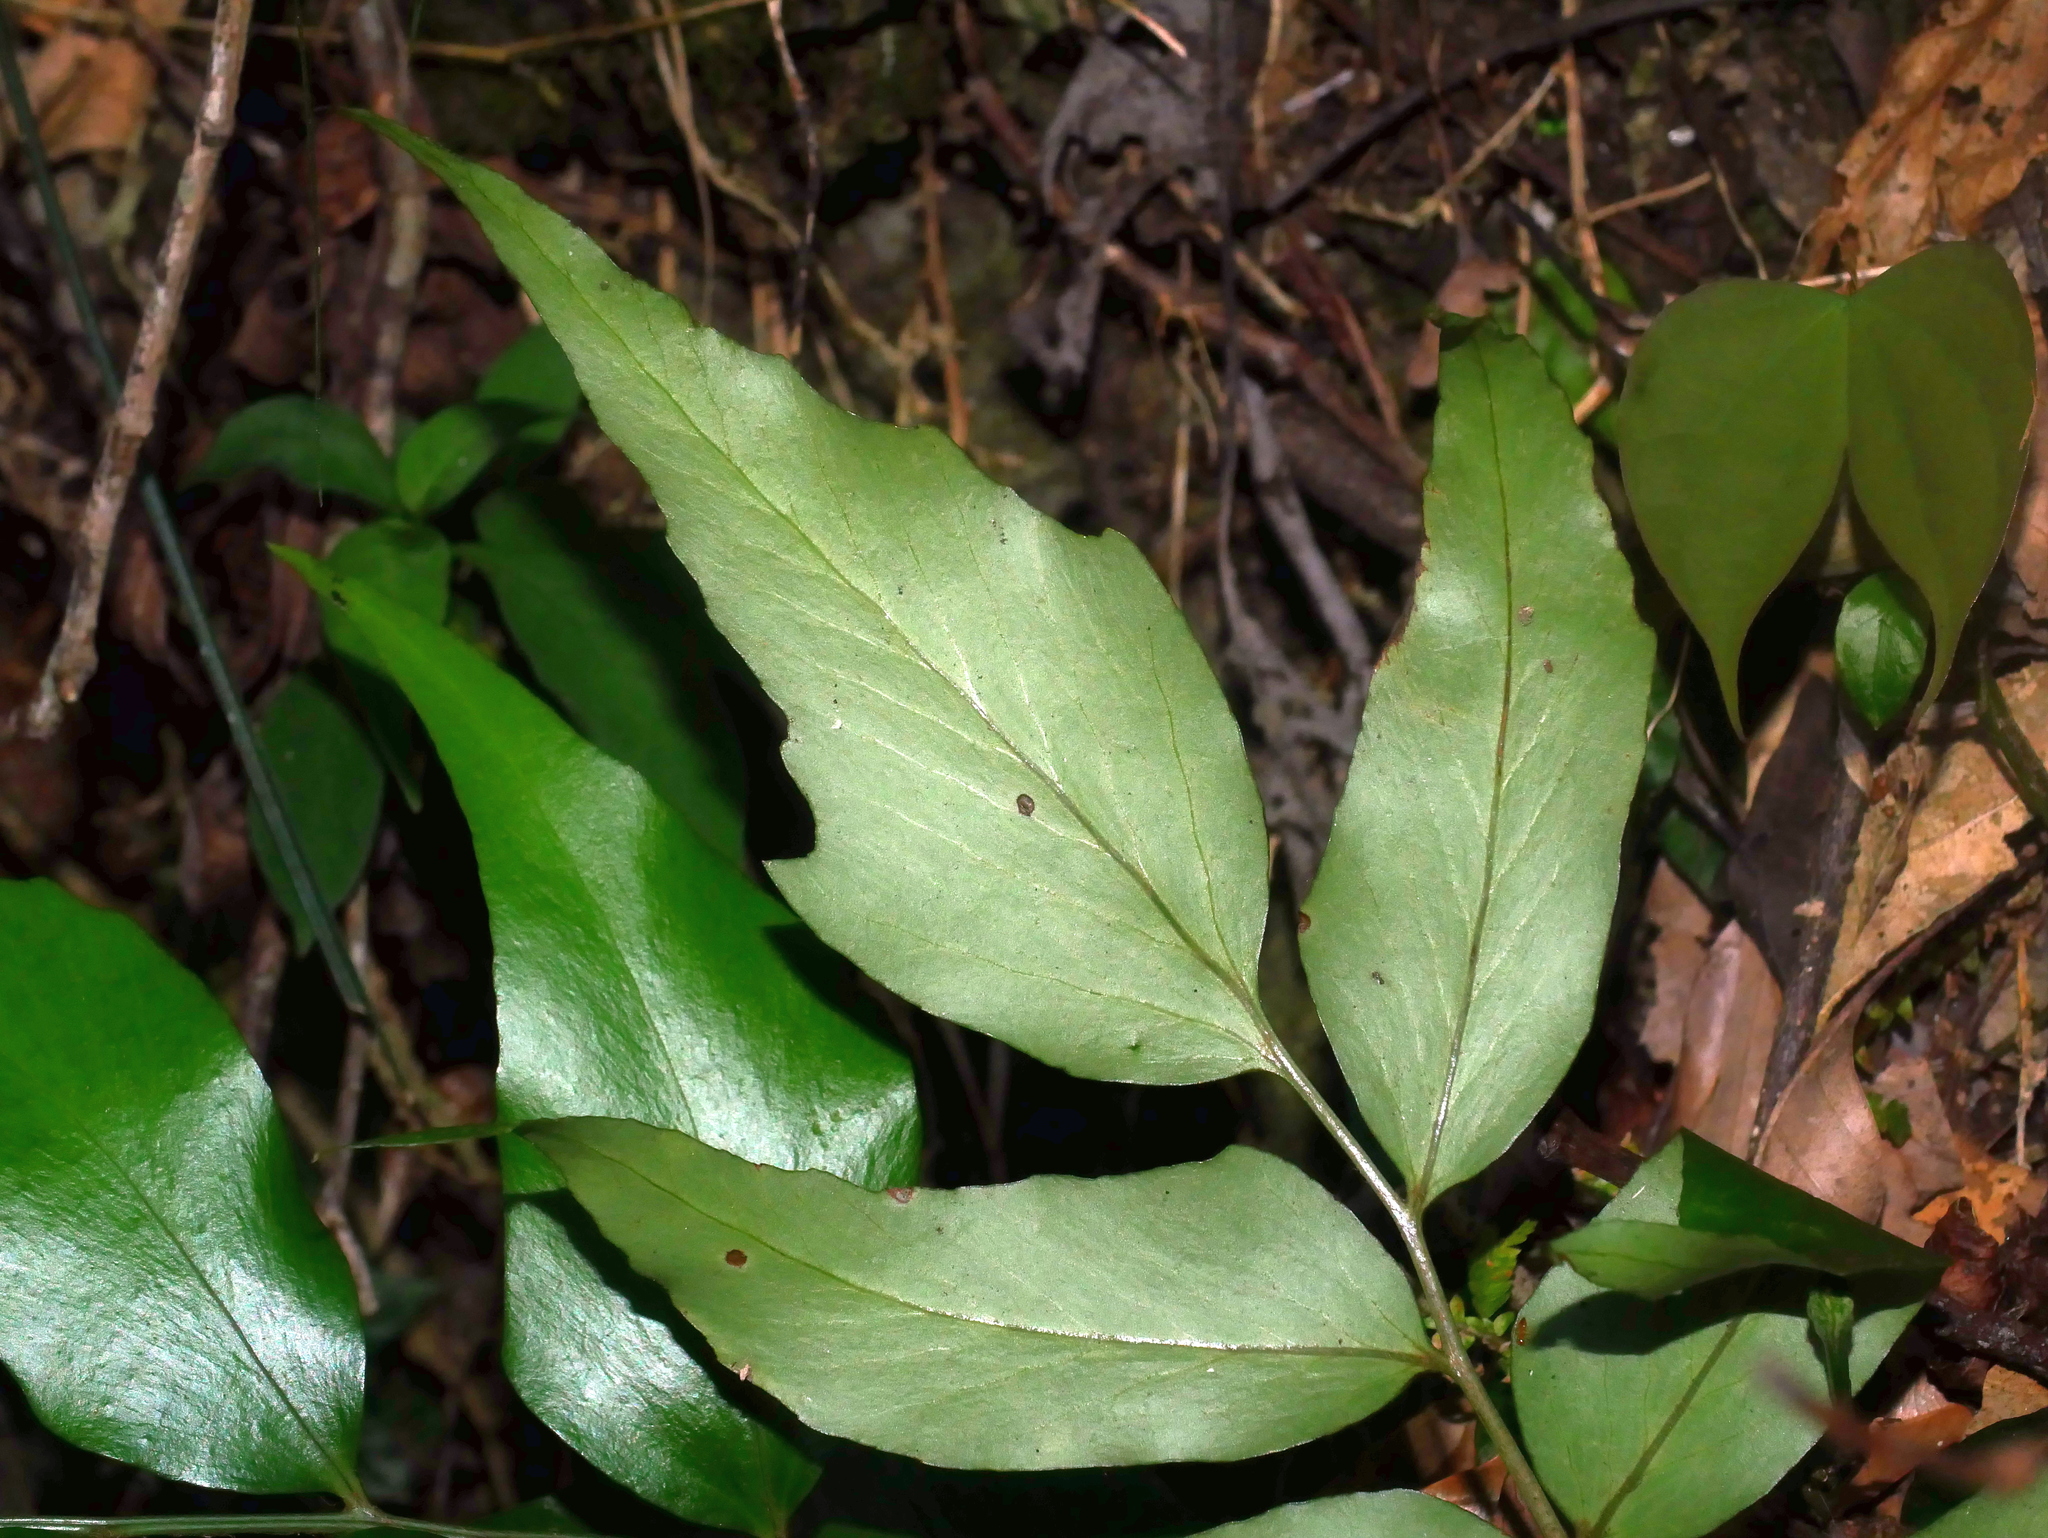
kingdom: Plantae
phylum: Tracheophyta
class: Polypodiopsida
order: Polypodiales
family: Dryopteridaceae
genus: Cyrtomium
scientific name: Cyrtomium falcatum
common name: House holly-fern
